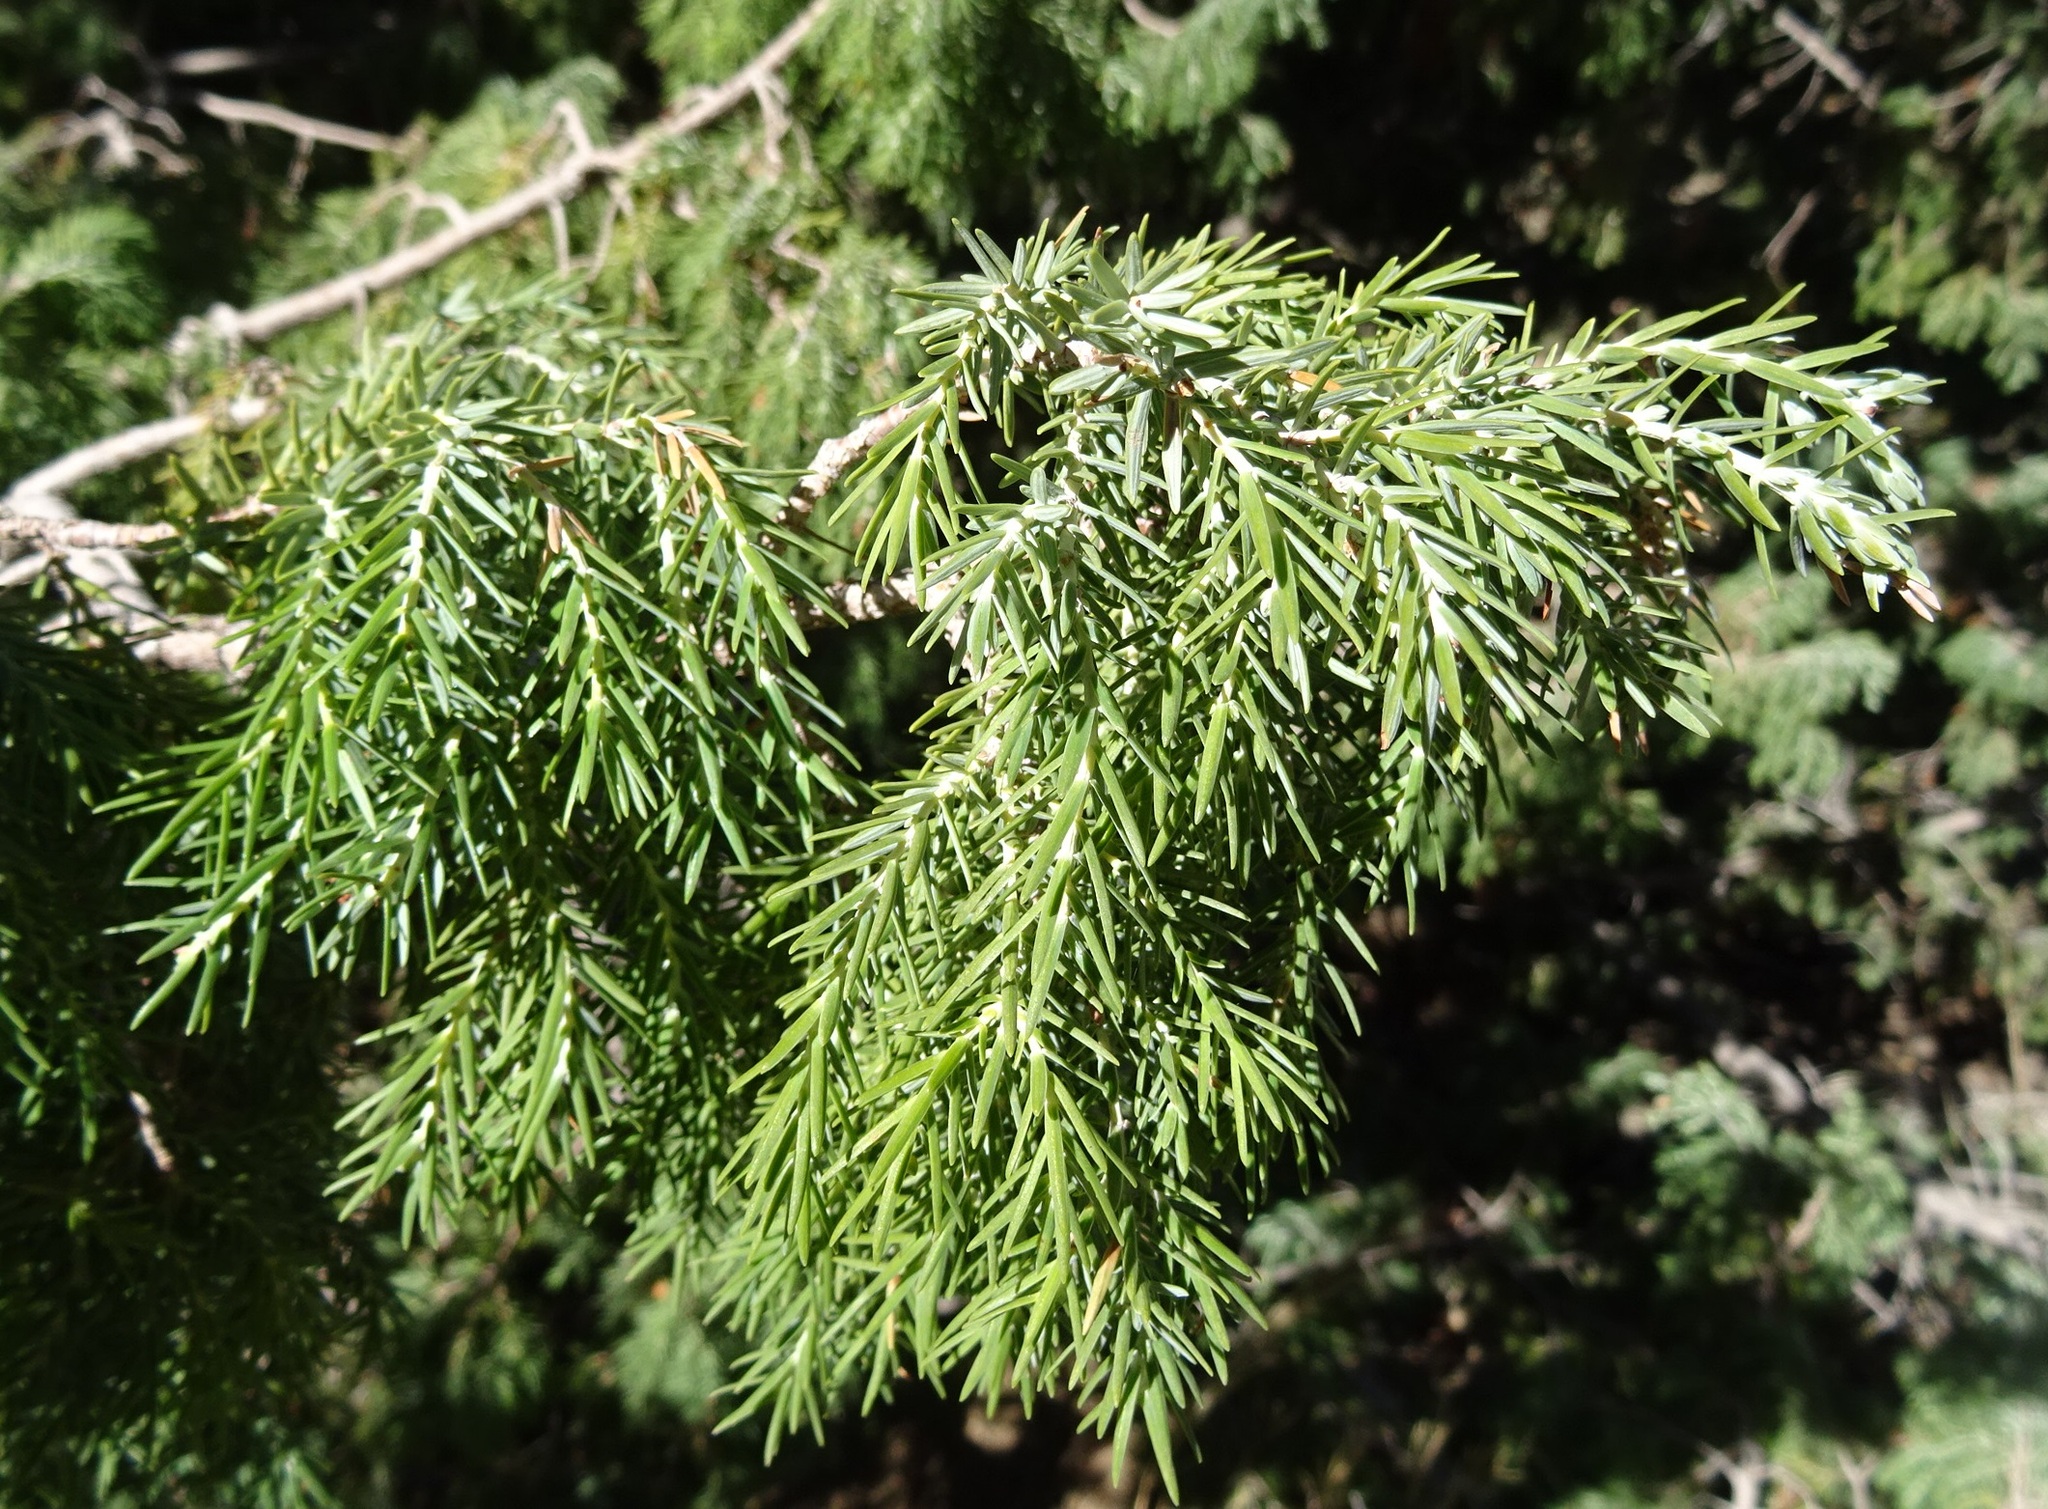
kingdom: Plantae
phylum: Tracheophyta
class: Pinopsida
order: Pinales
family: Cupressaceae
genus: Juniperus
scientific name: Juniperus cedrus
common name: Canary islands juniper
